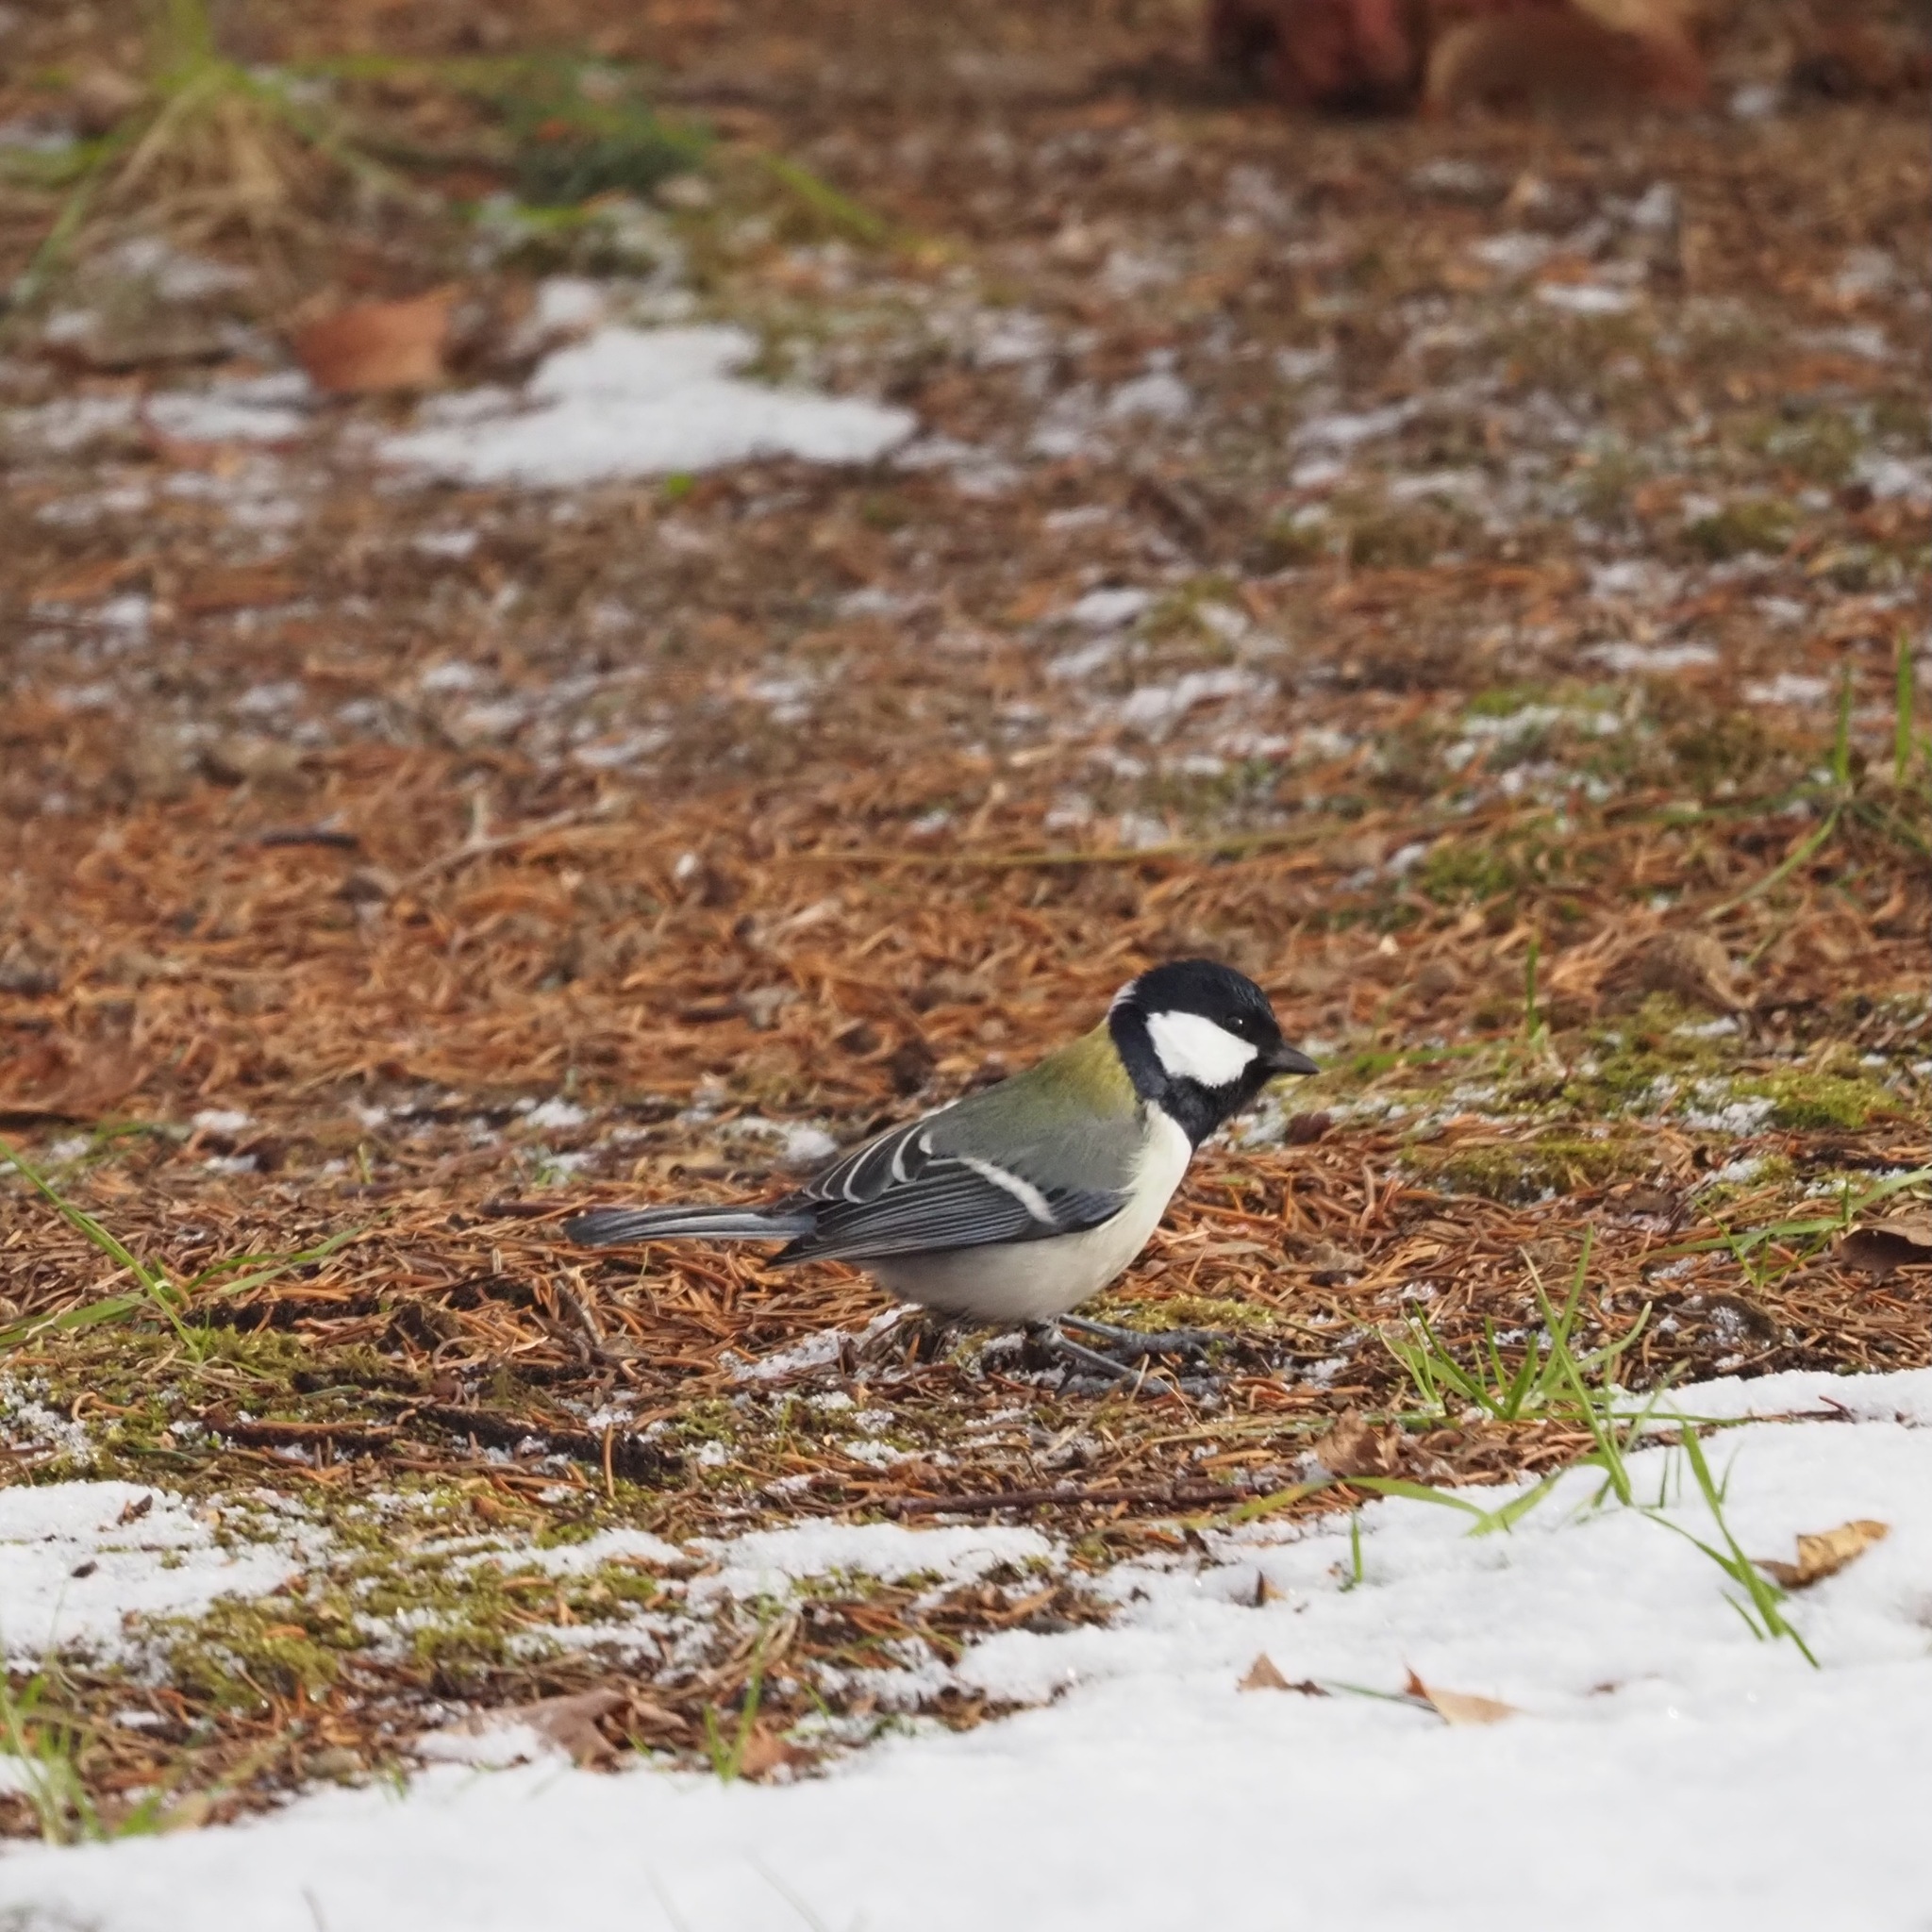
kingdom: Animalia
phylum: Chordata
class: Aves
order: Passeriformes
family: Paridae
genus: Parus
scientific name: Parus minor
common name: Japanese tit
